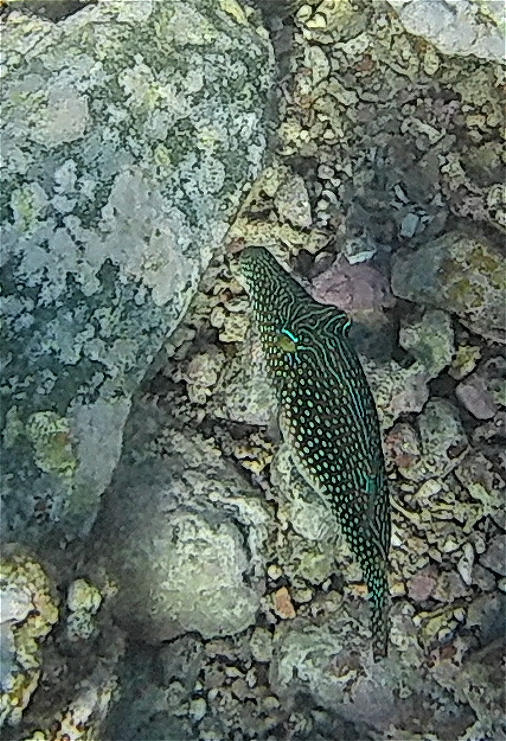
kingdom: Animalia
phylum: Chordata
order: Tetraodontiformes
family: Tetraodontidae
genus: Canthigaster
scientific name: Canthigaster margaritata
